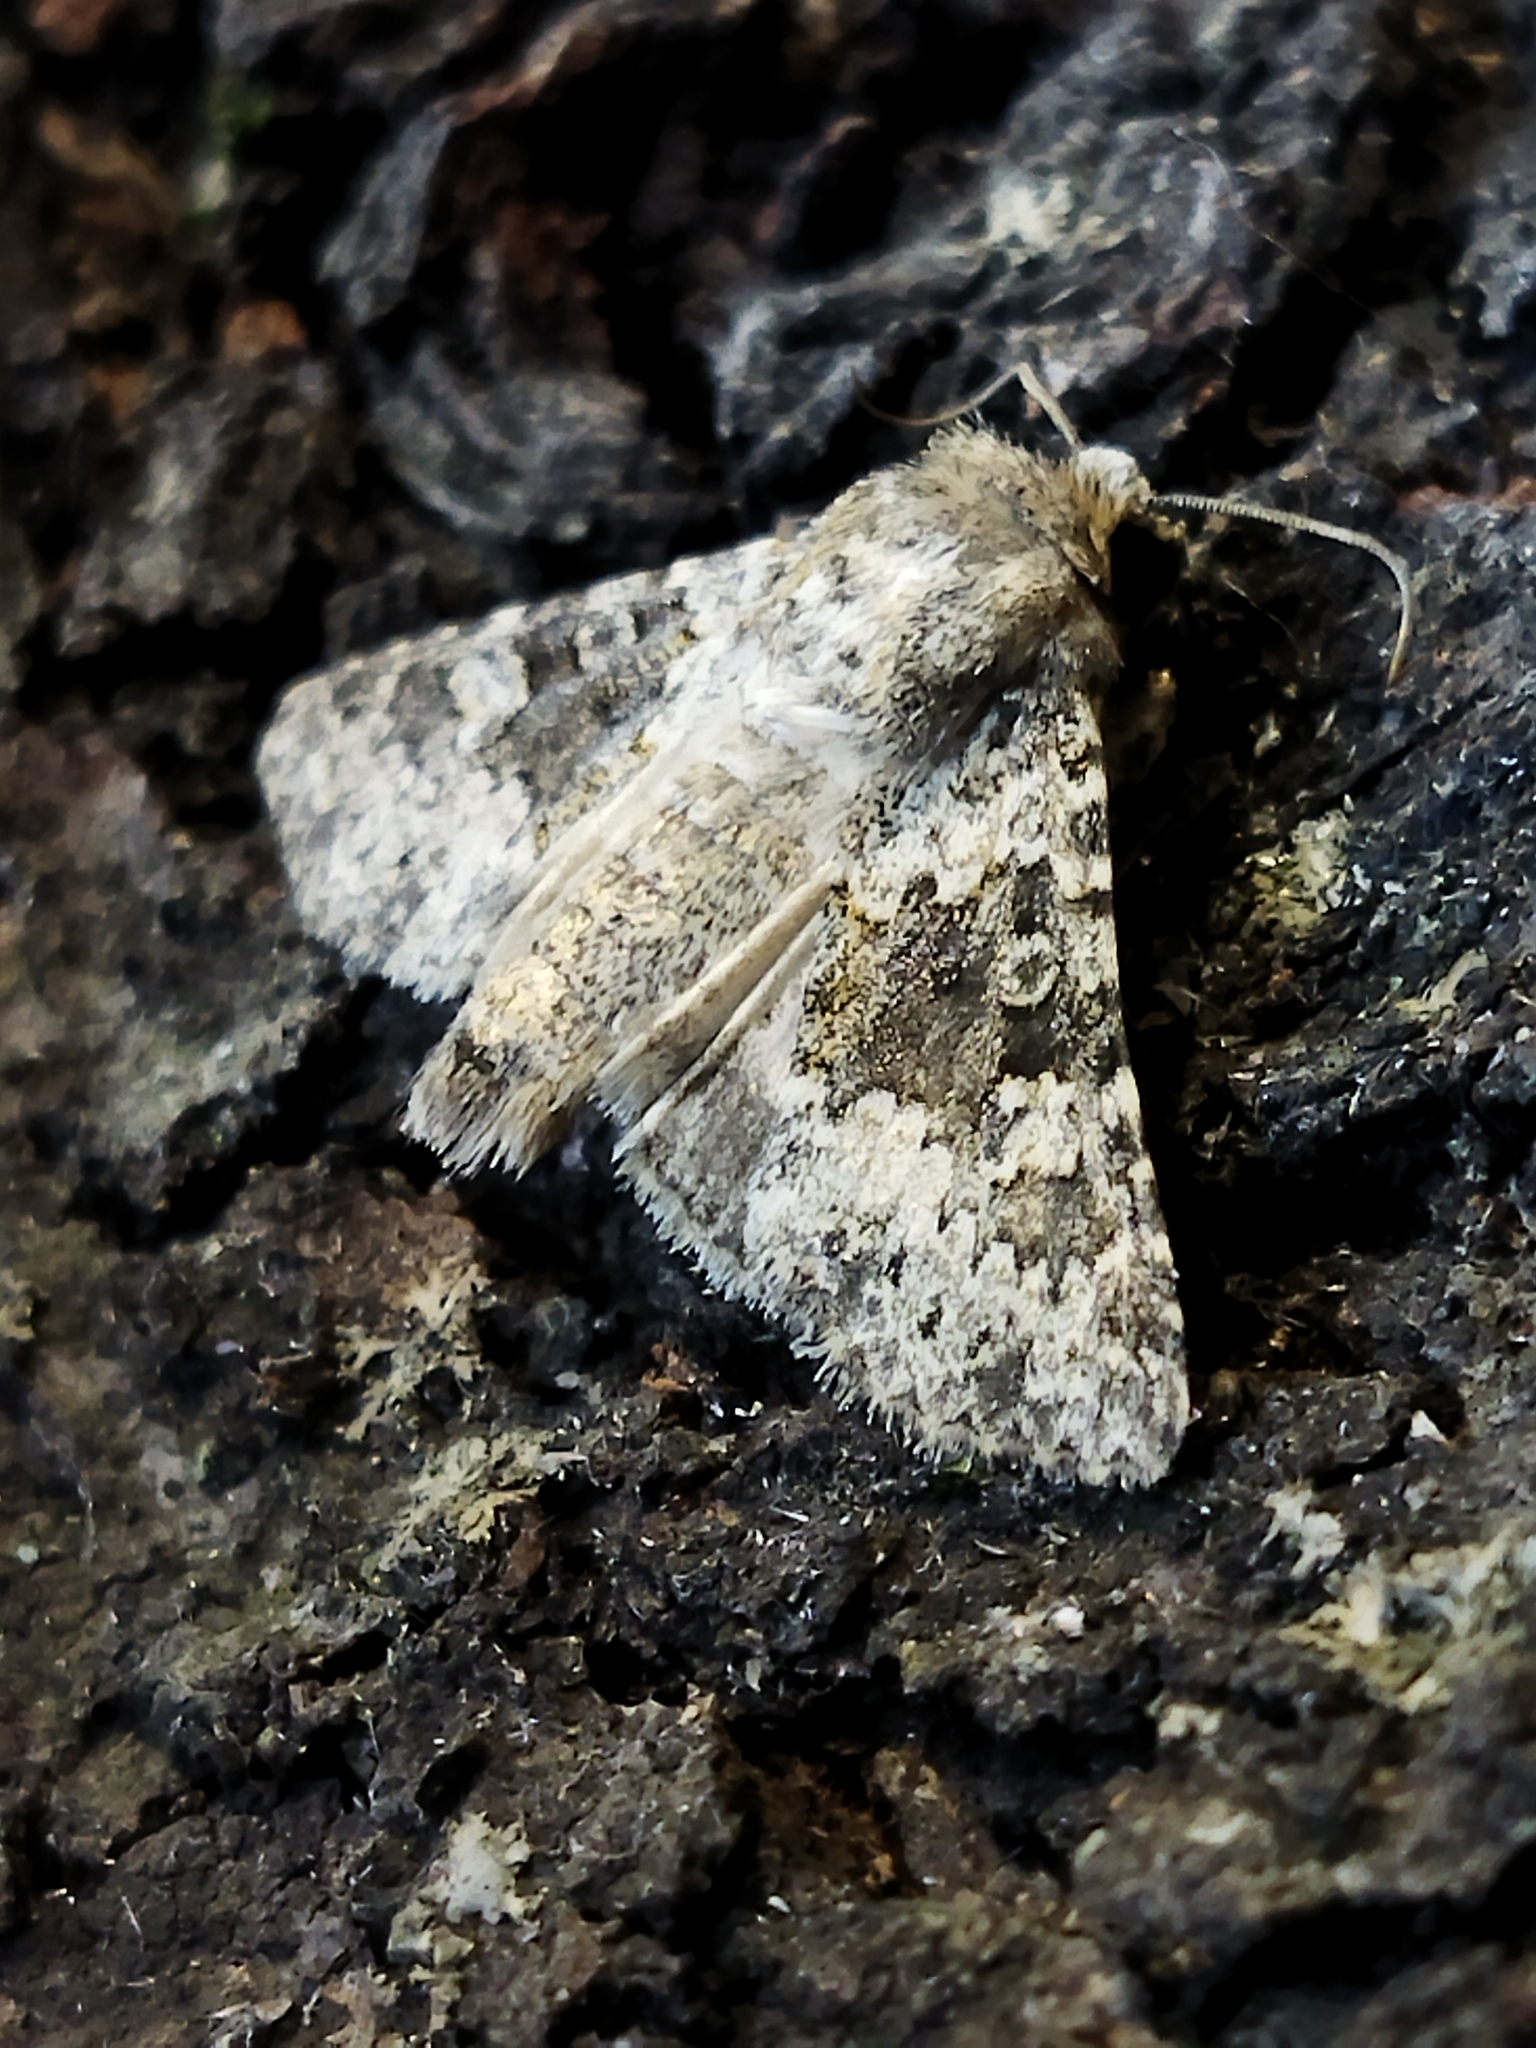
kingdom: Animalia
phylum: Arthropoda
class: Insecta
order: Lepidoptera
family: Noctuidae
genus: Hecatera
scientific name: Hecatera dysodea
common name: Small ranunculus
